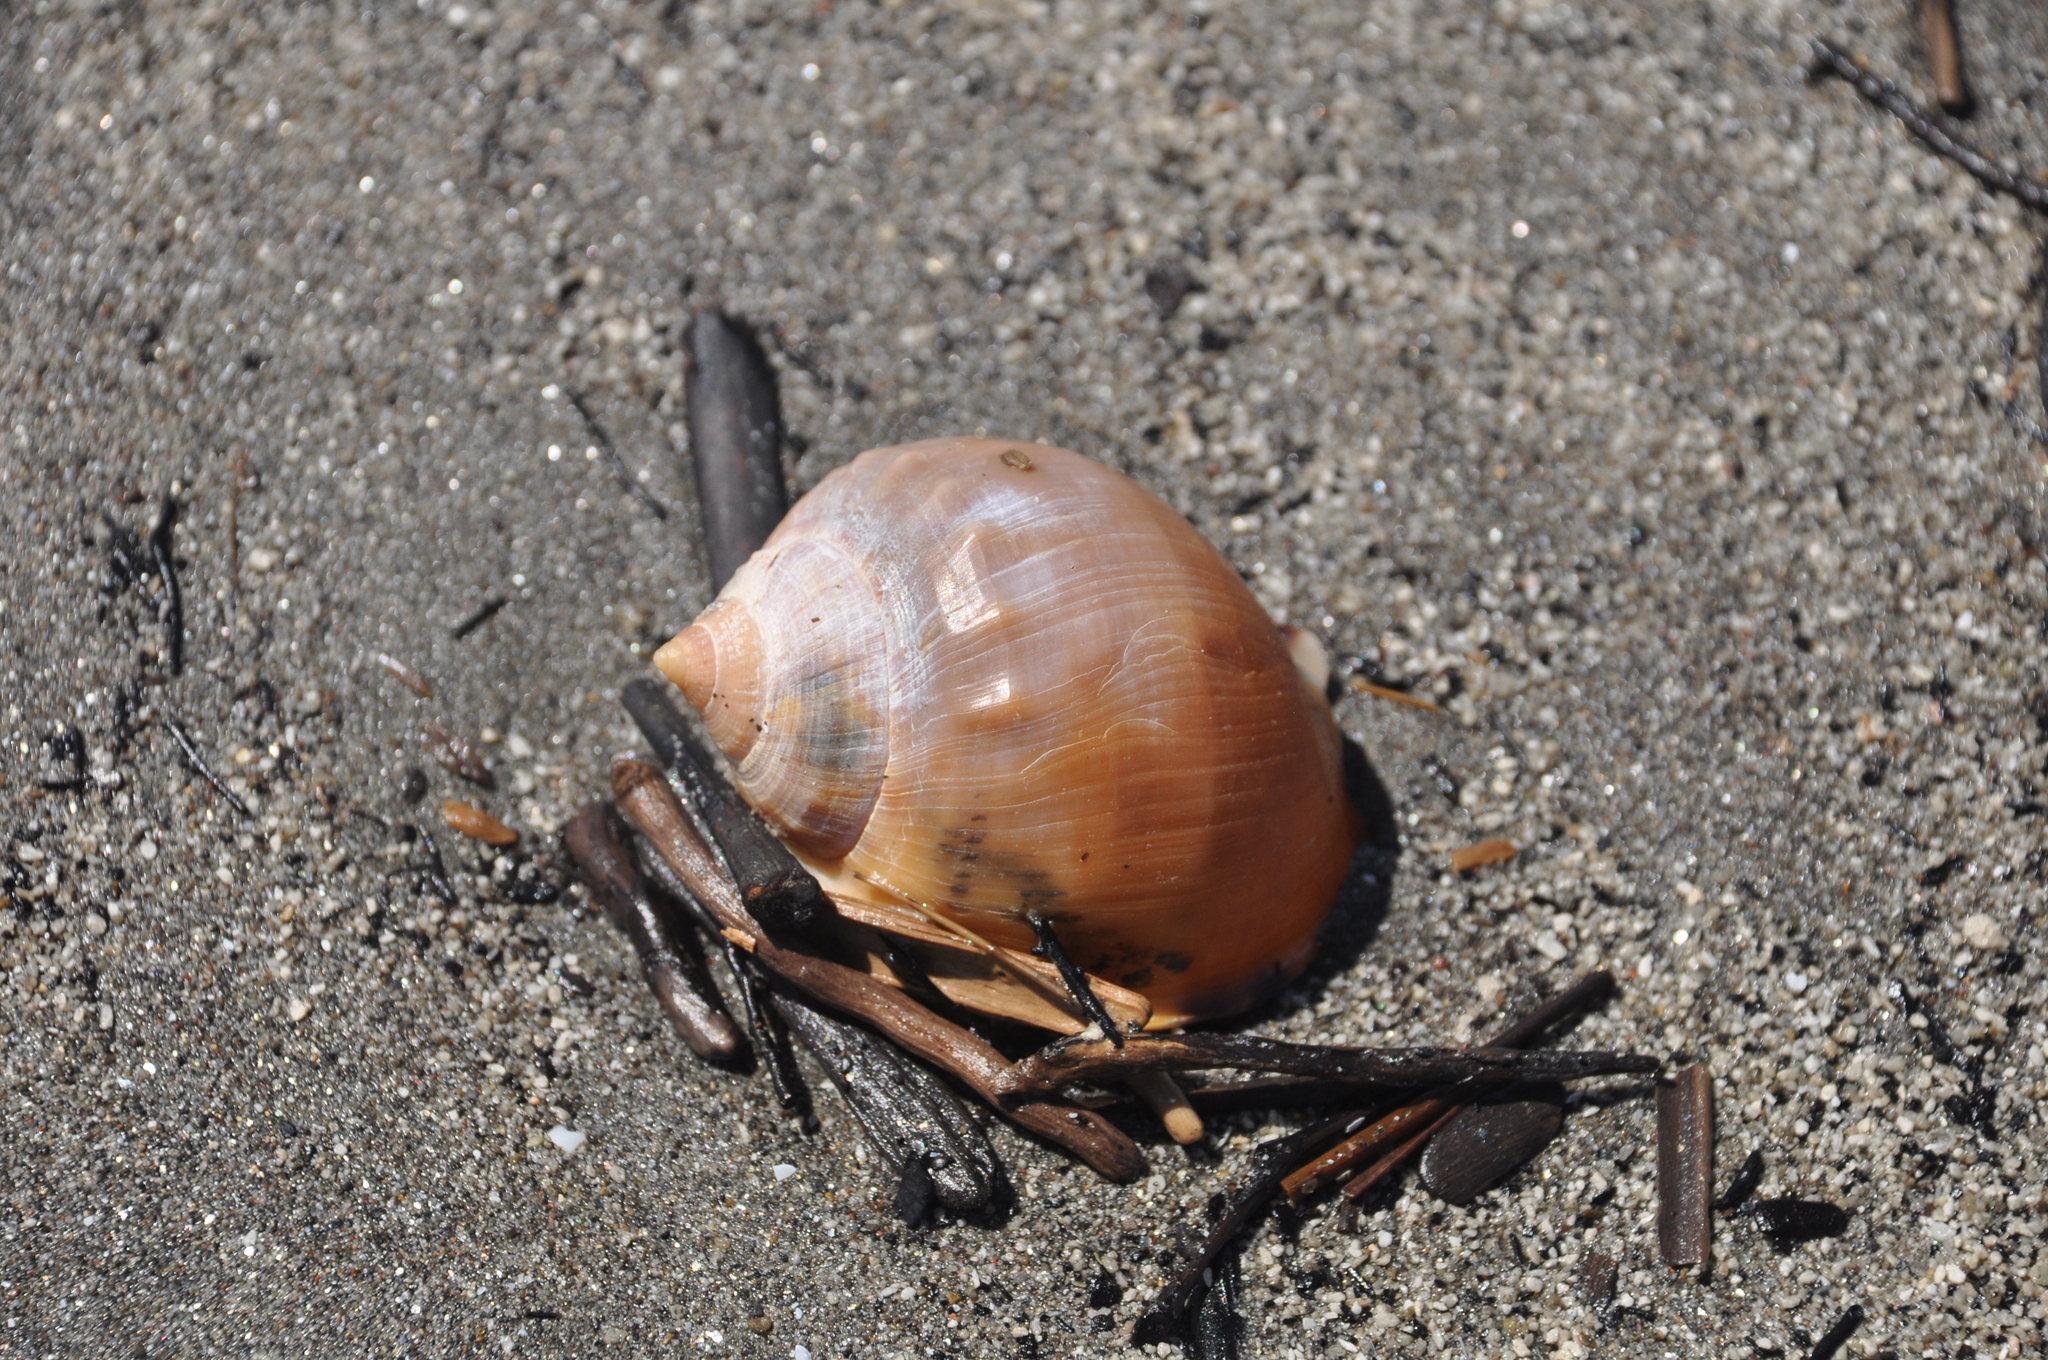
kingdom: Animalia
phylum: Mollusca
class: Gastropoda
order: Littorinimorpha
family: Cassidae
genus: Semicassis
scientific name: Semicassis pyrum
